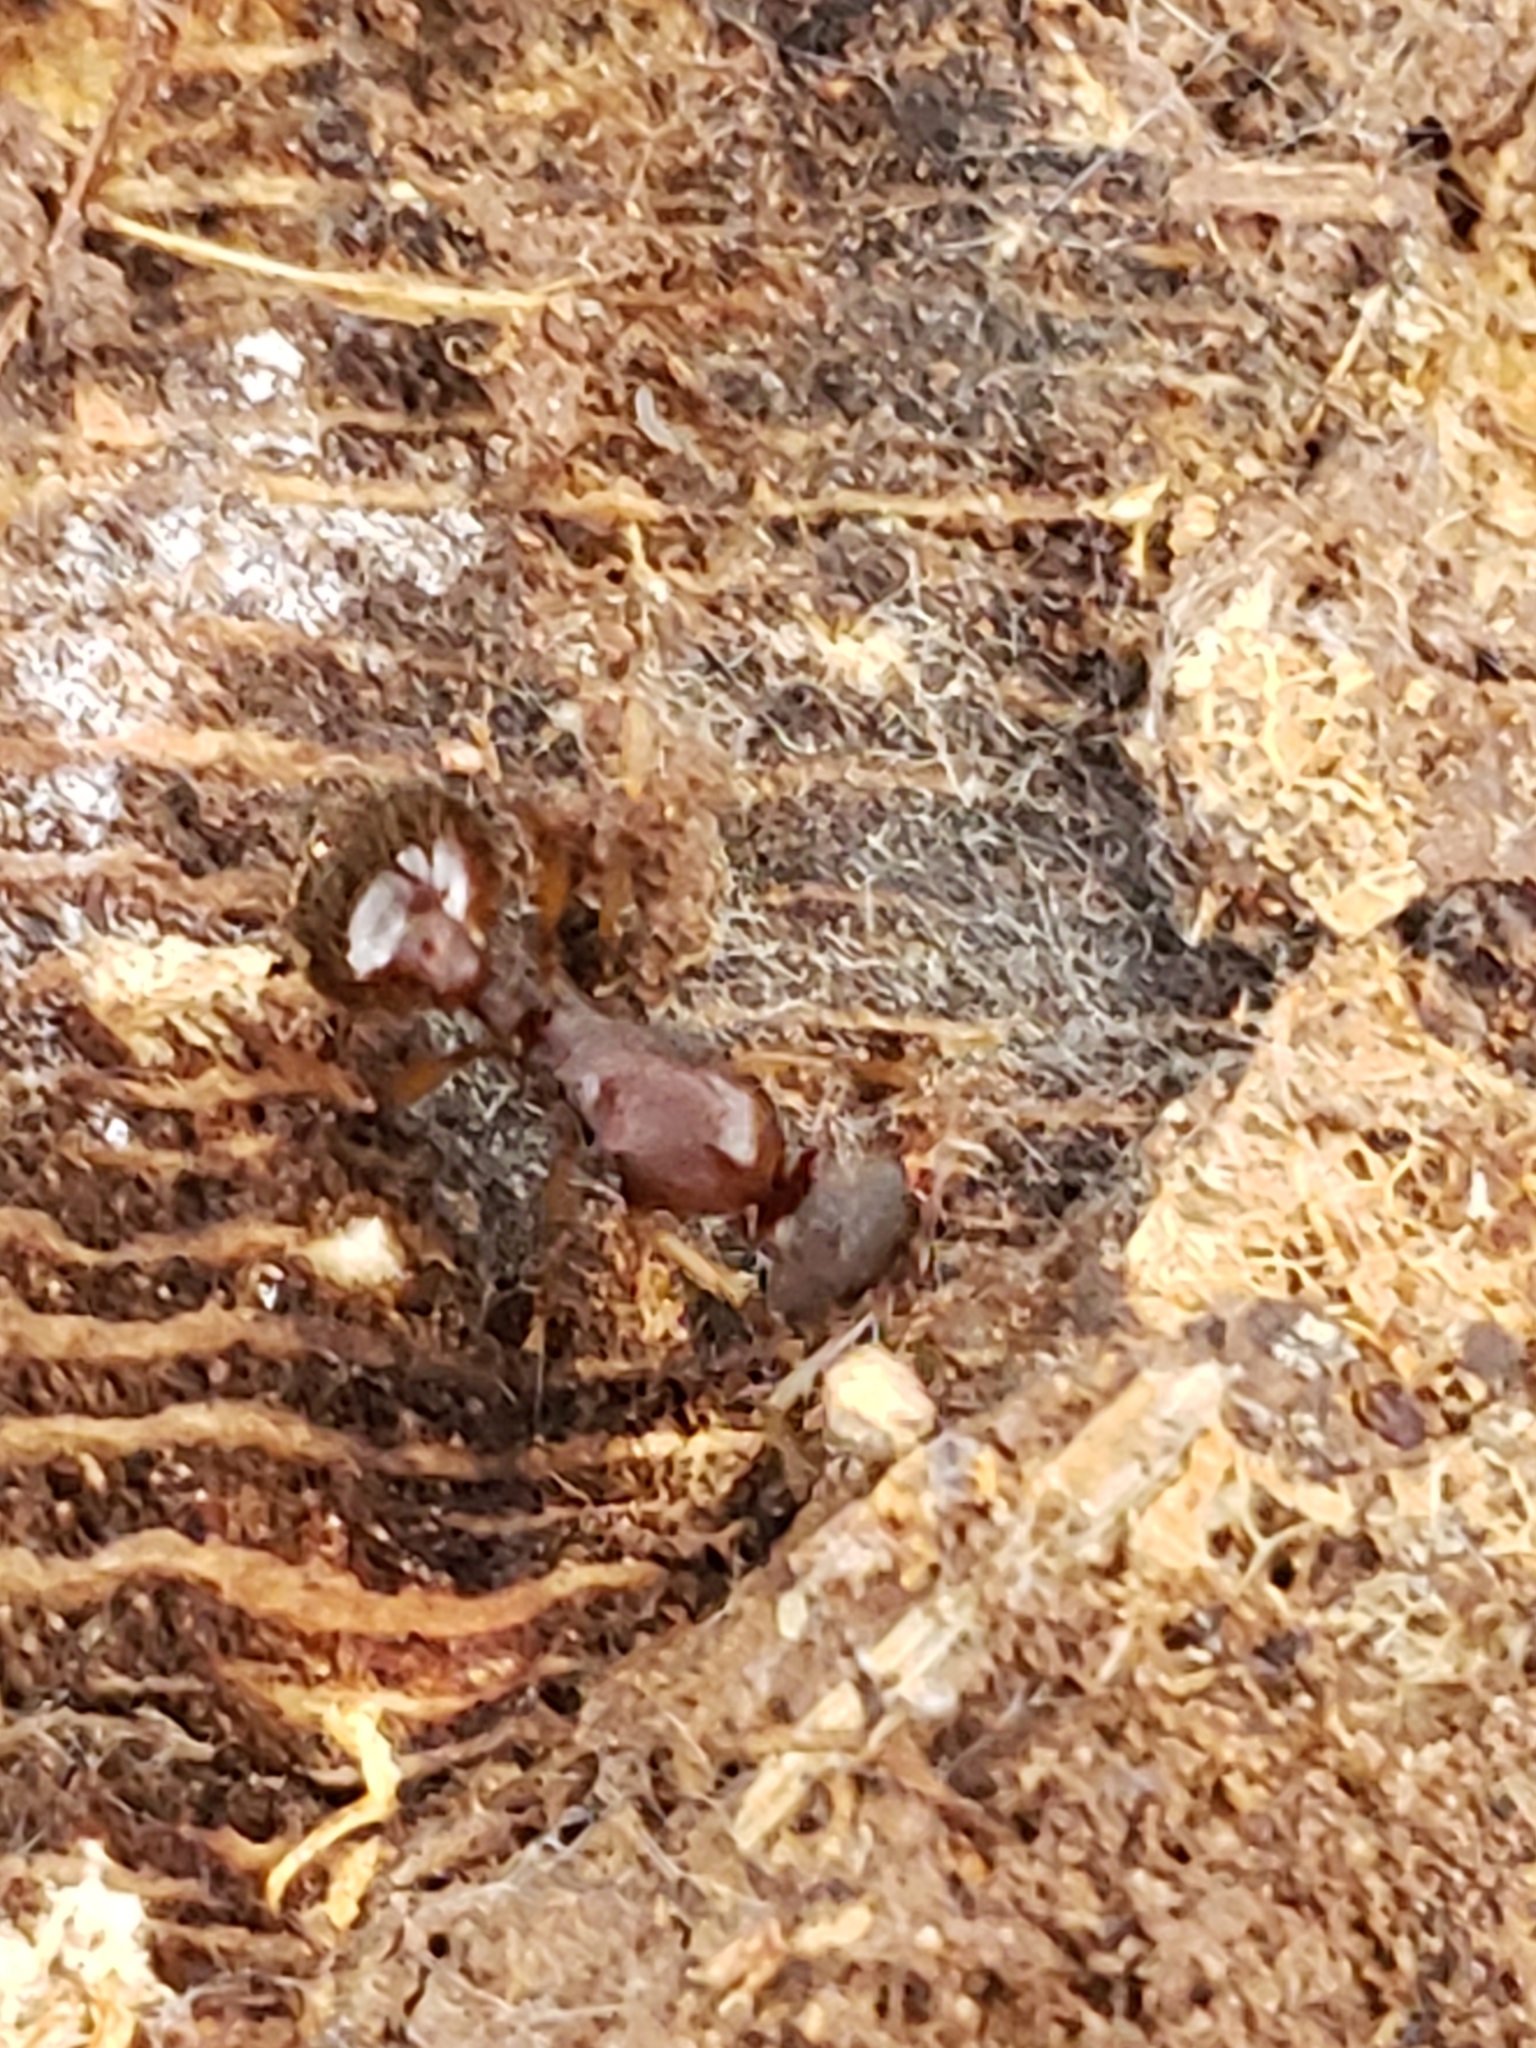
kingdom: Animalia
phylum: Arthropoda
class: Insecta
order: Hymenoptera
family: Formicidae
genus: Aphaenogaster
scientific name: Aphaenogaster rudis
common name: Winnow ant
